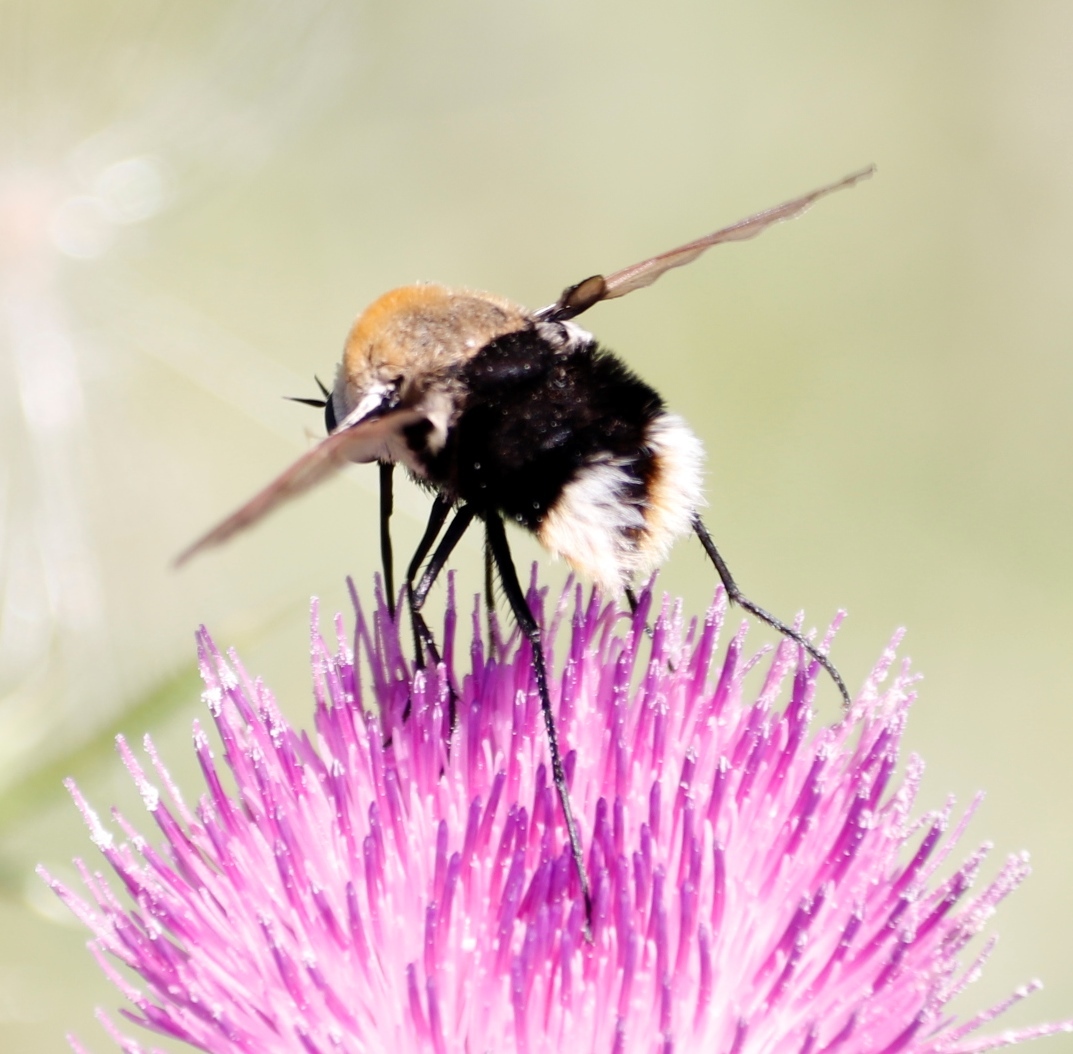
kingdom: Animalia
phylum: Arthropoda
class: Insecta
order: Diptera
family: Bombyliidae
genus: Bombomyia
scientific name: Bombomyia discoidea
